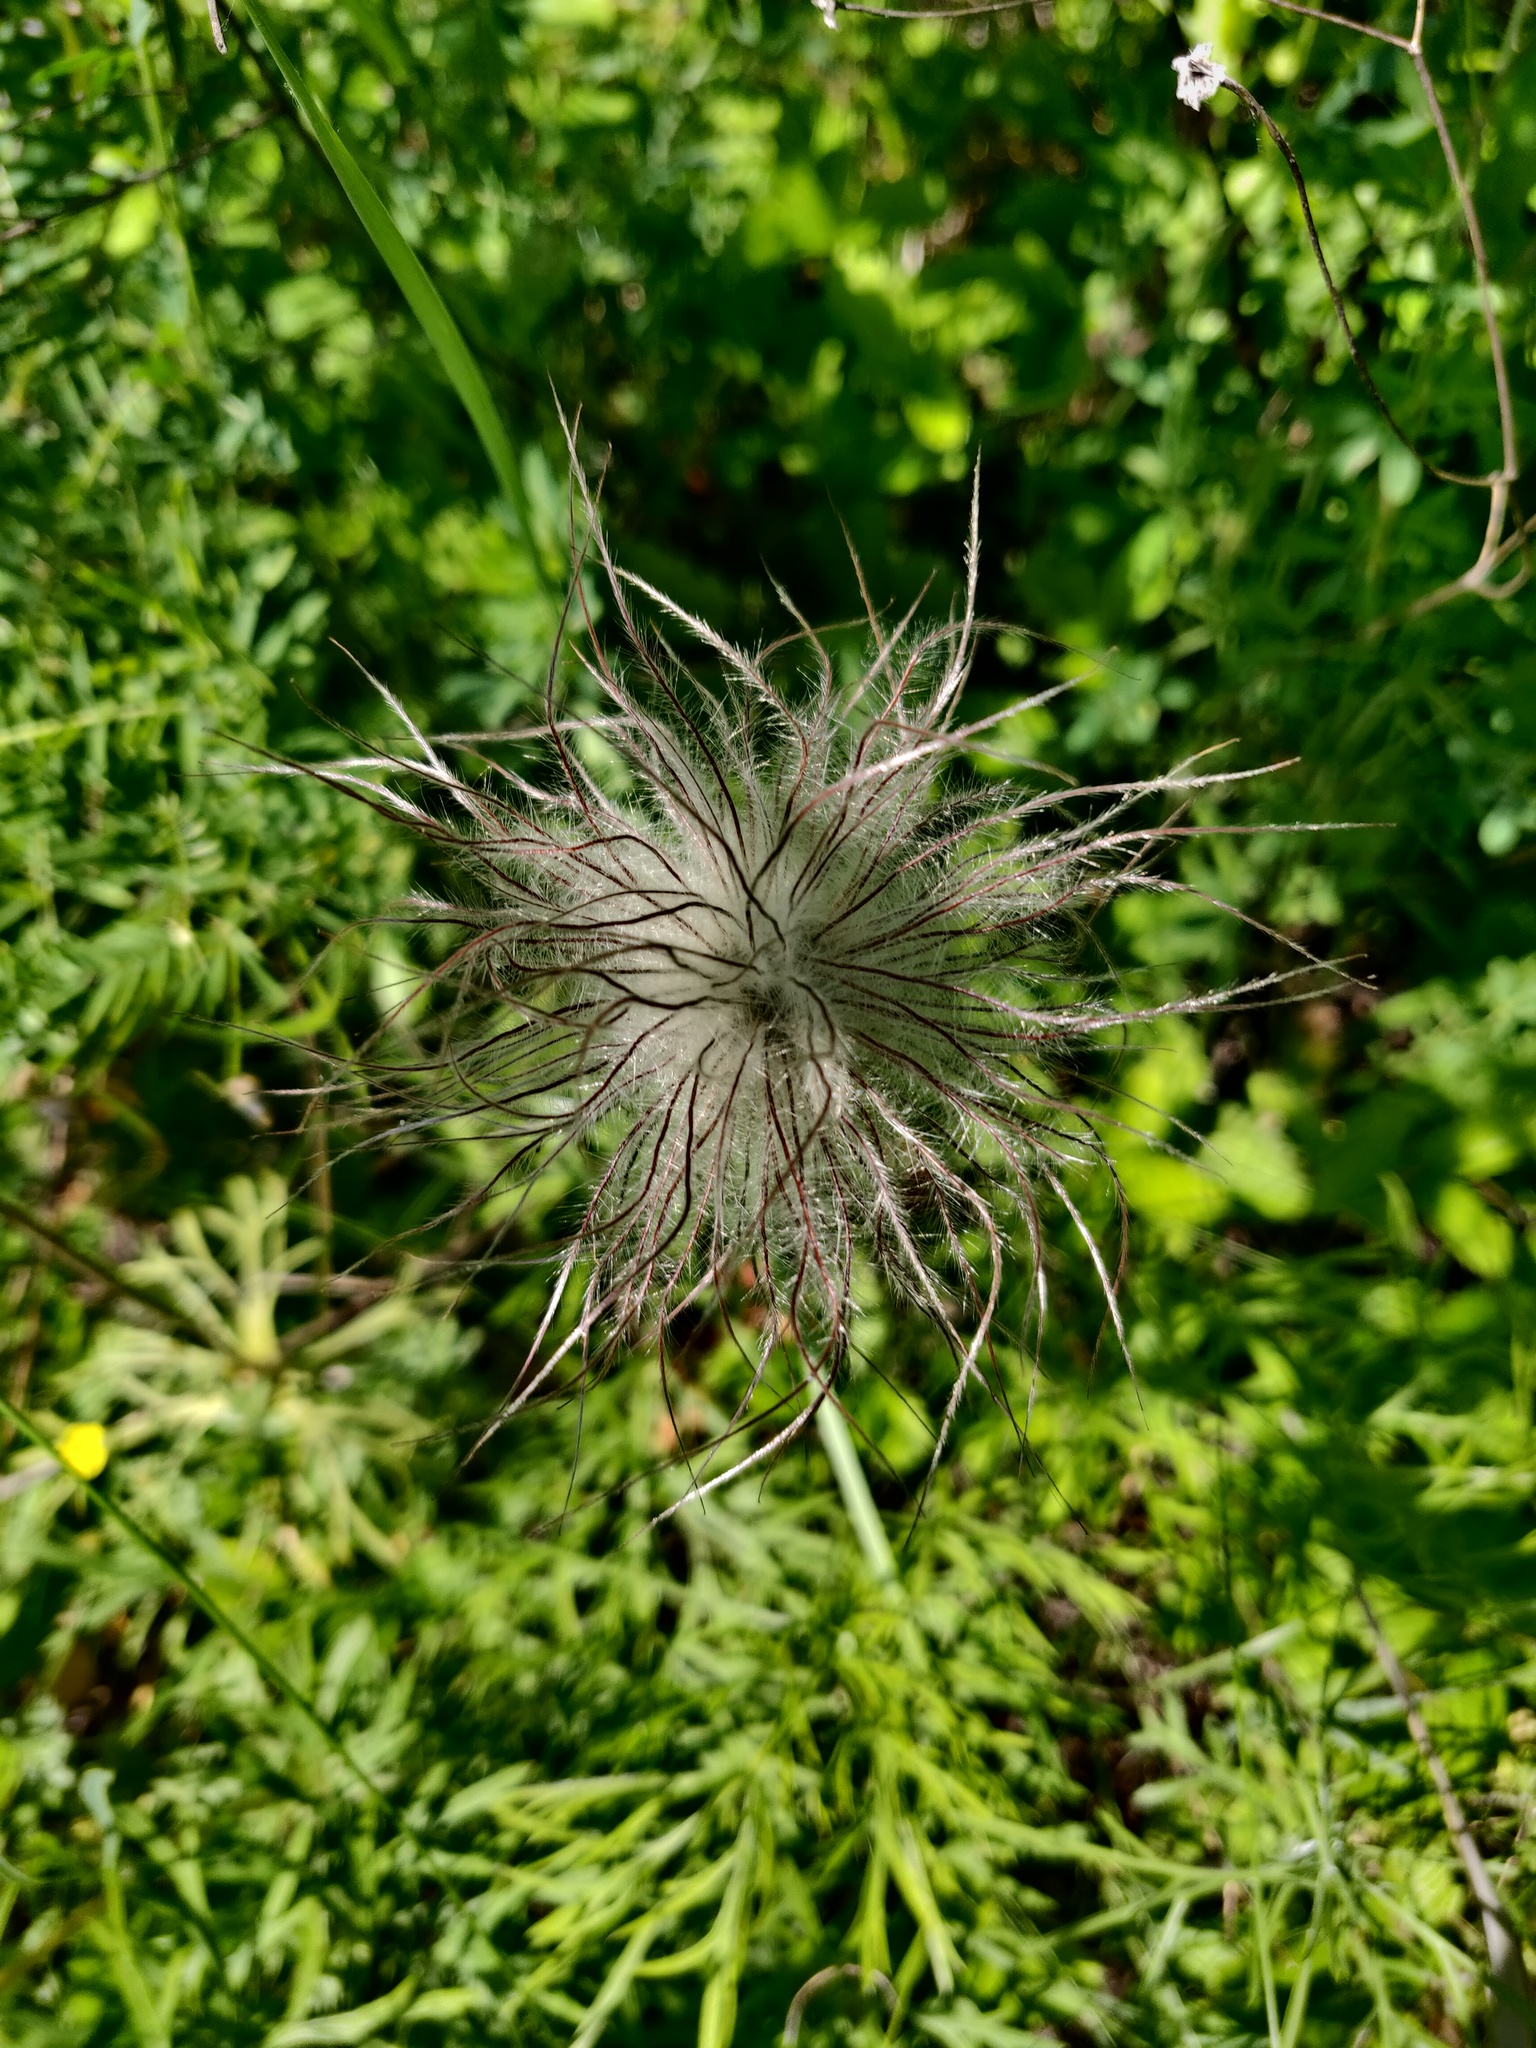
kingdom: Plantae
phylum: Tracheophyta
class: Magnoliopsida
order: Ranunculales
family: Ranunculaceae
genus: Pulsatilla
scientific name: Pulsatilla pratensis
